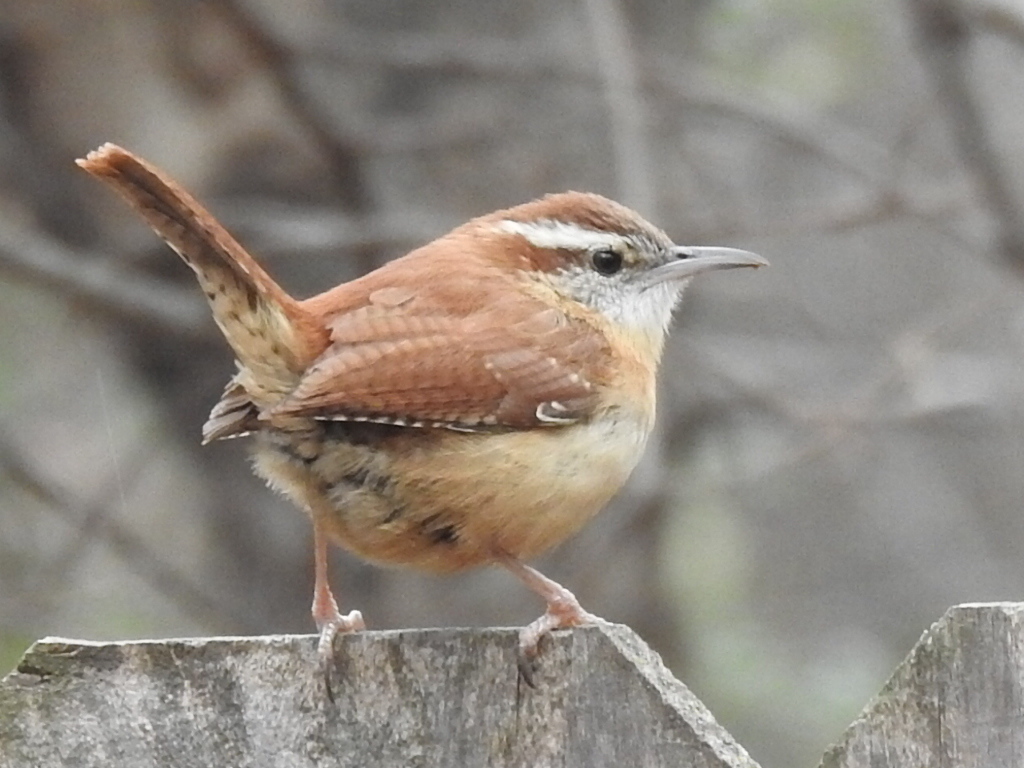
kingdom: Animalia
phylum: Chordata
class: Aves
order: Passeriformes
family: Troglodytidae
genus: Thryothorus
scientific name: Thryothorus ludovicianus
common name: Carolina wren
